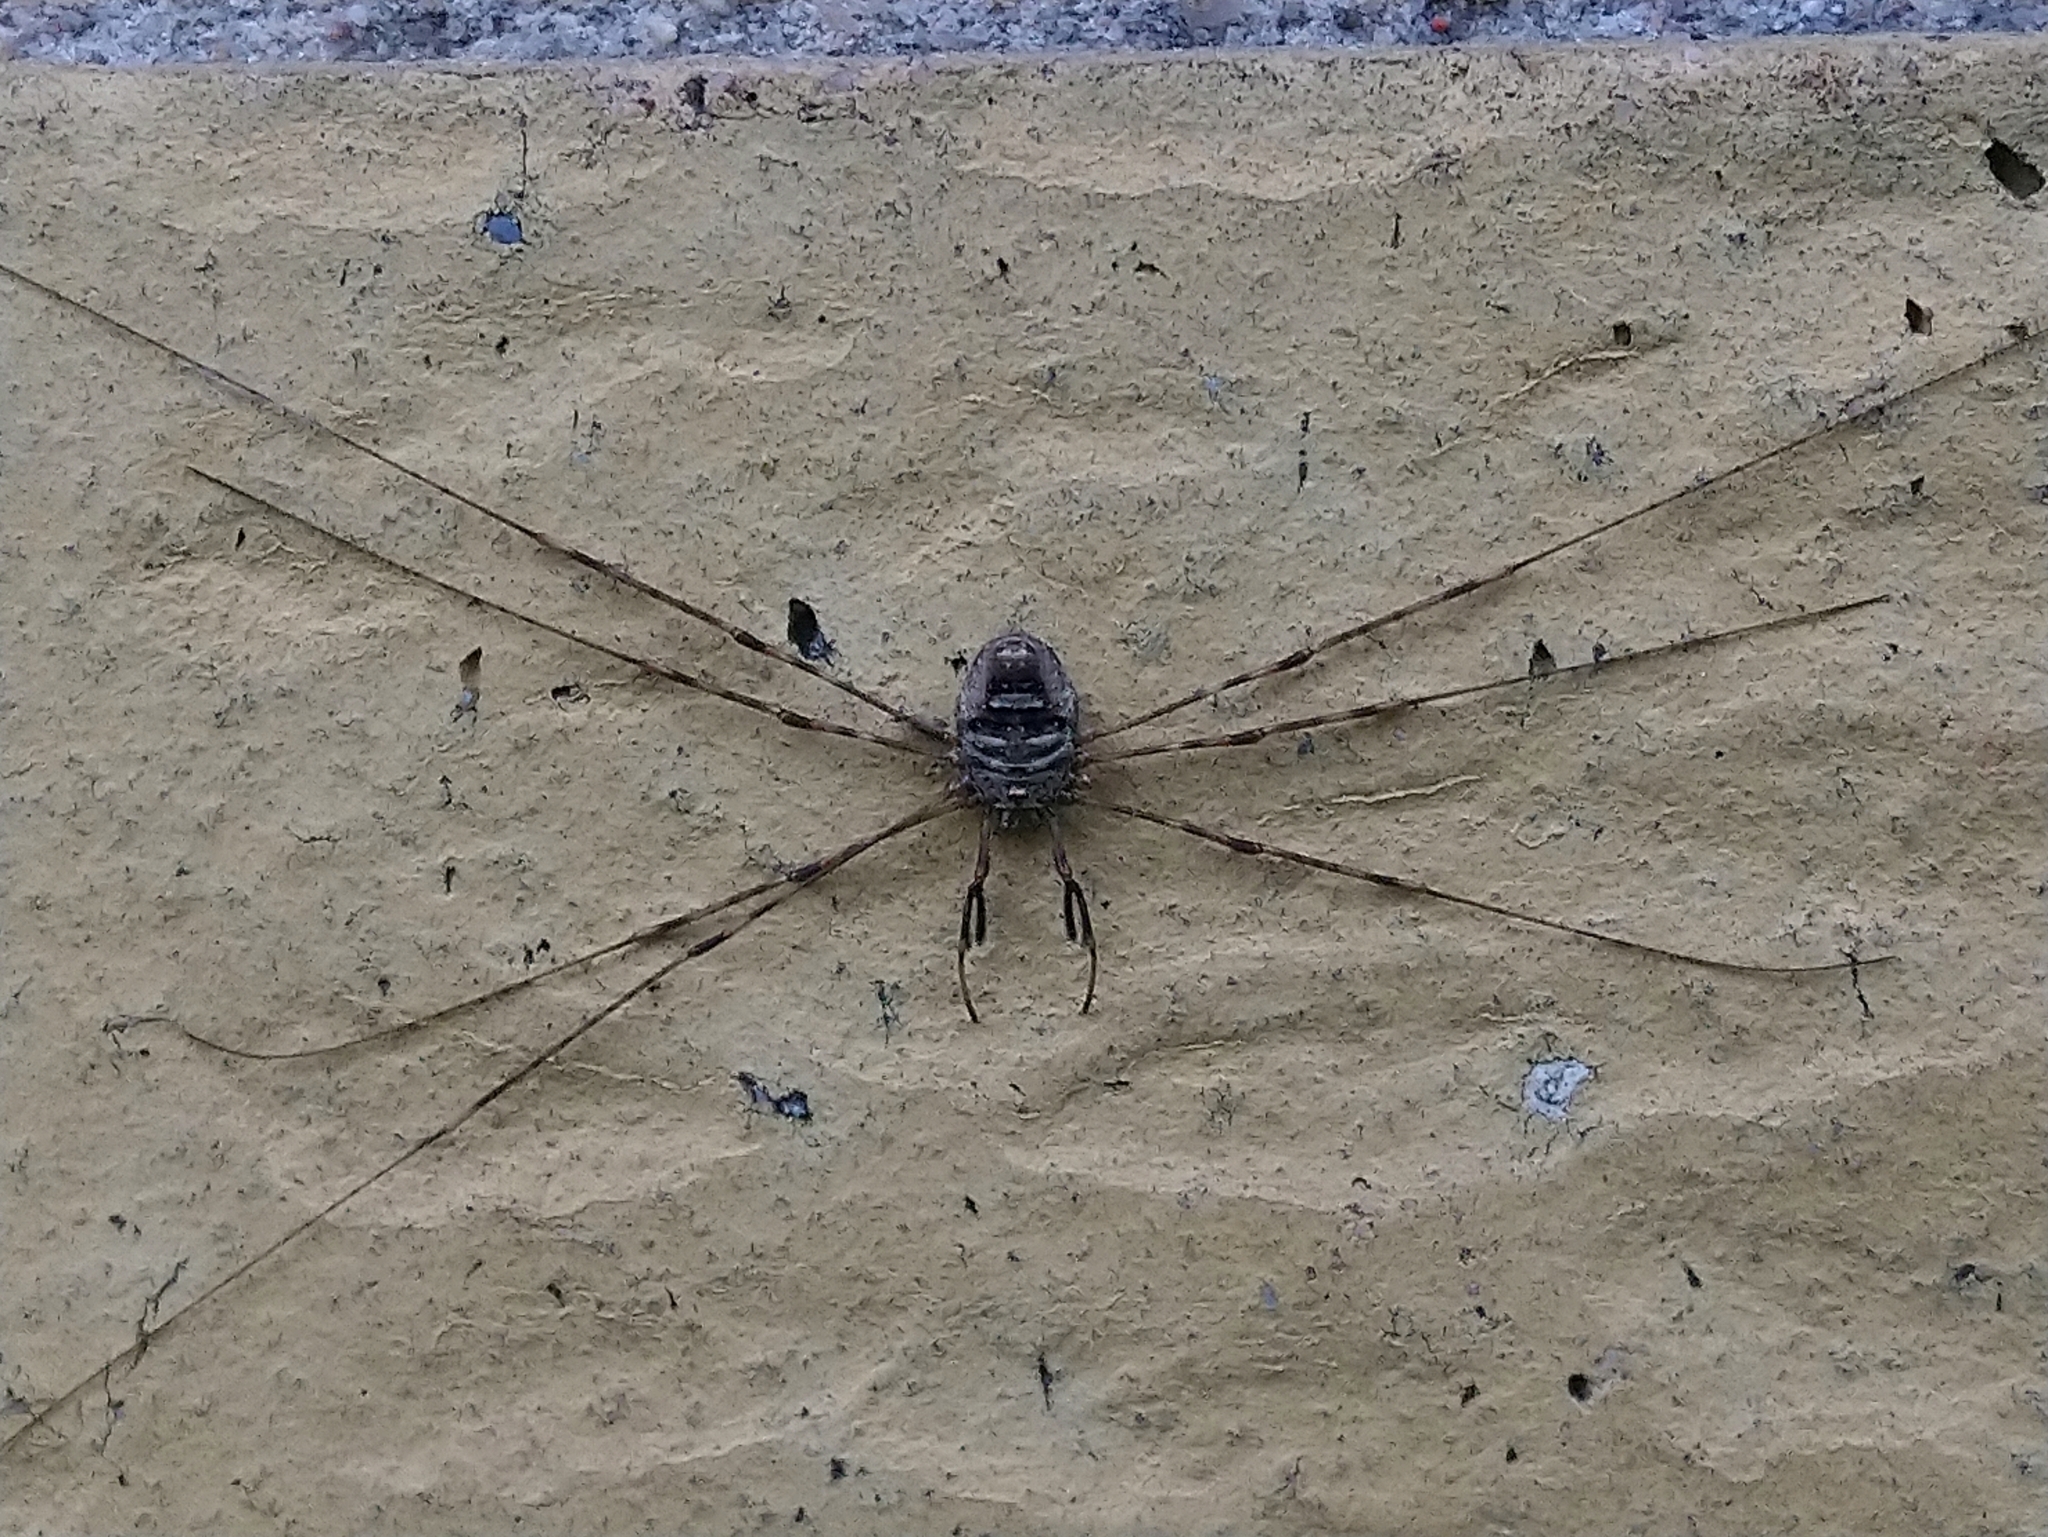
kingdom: Animalia
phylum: Arthropoda
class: Arachnida
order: Opiliones
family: Phalangiidae
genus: Dicranopalpus
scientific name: Dicranopalpus ramosus
